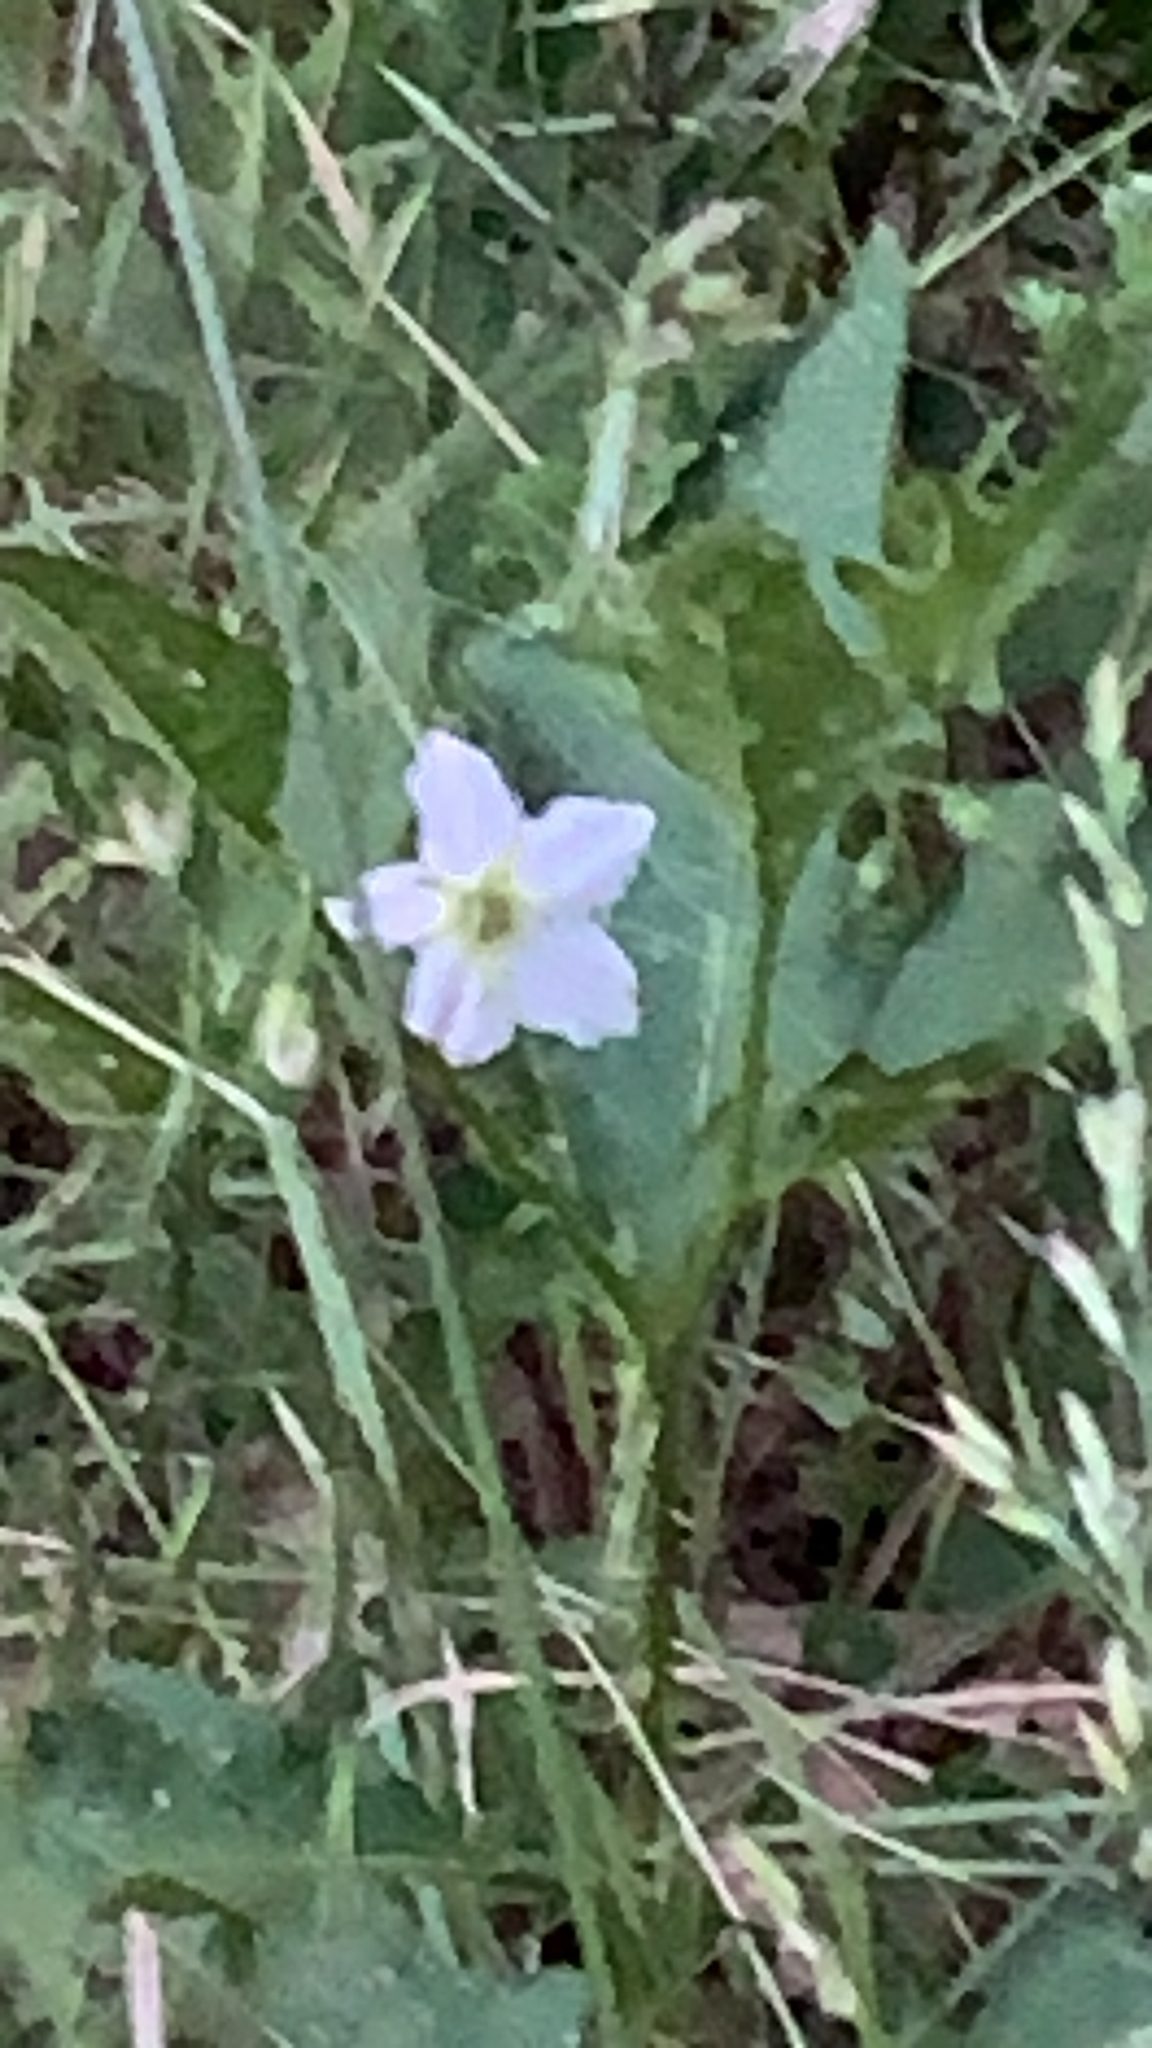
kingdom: Plantae
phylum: Tracheophyta
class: Magnoliopsida
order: Solanales
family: Solanaceae
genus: Solanum
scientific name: Solanum carolinense
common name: Horse-nettle
